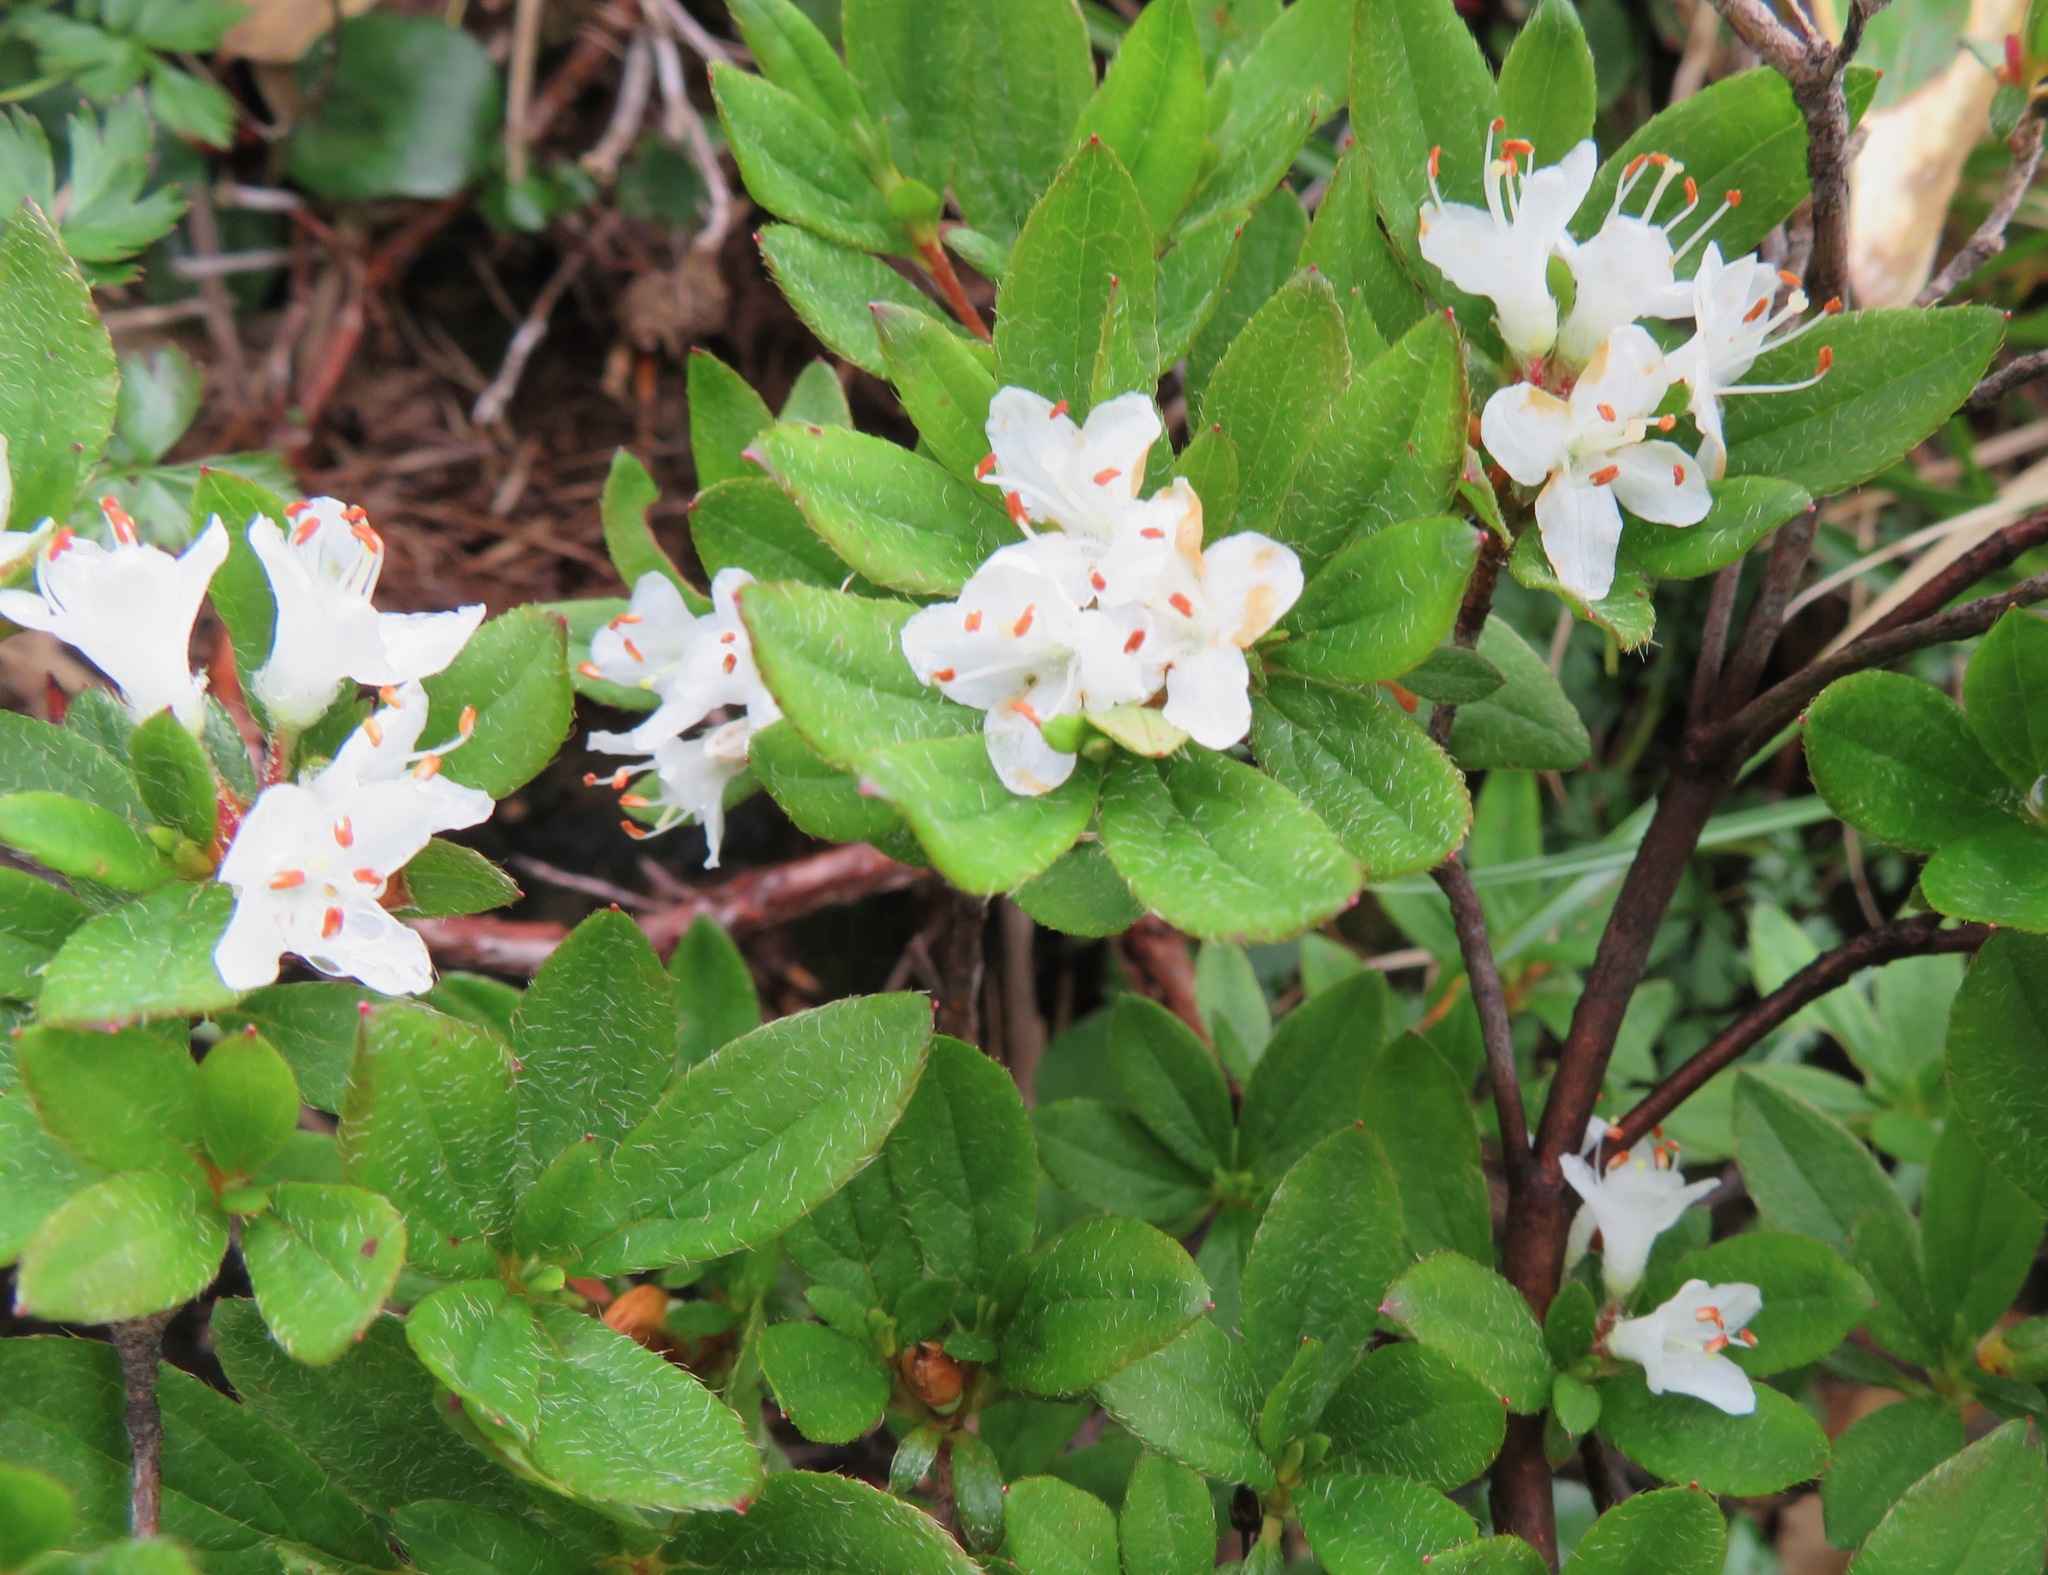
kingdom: Plantae
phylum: Tracheophyta
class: Magnoliopsida
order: Ericales
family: Ericaceae
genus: Rhododendron
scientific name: Rhododendron tschonoskii
